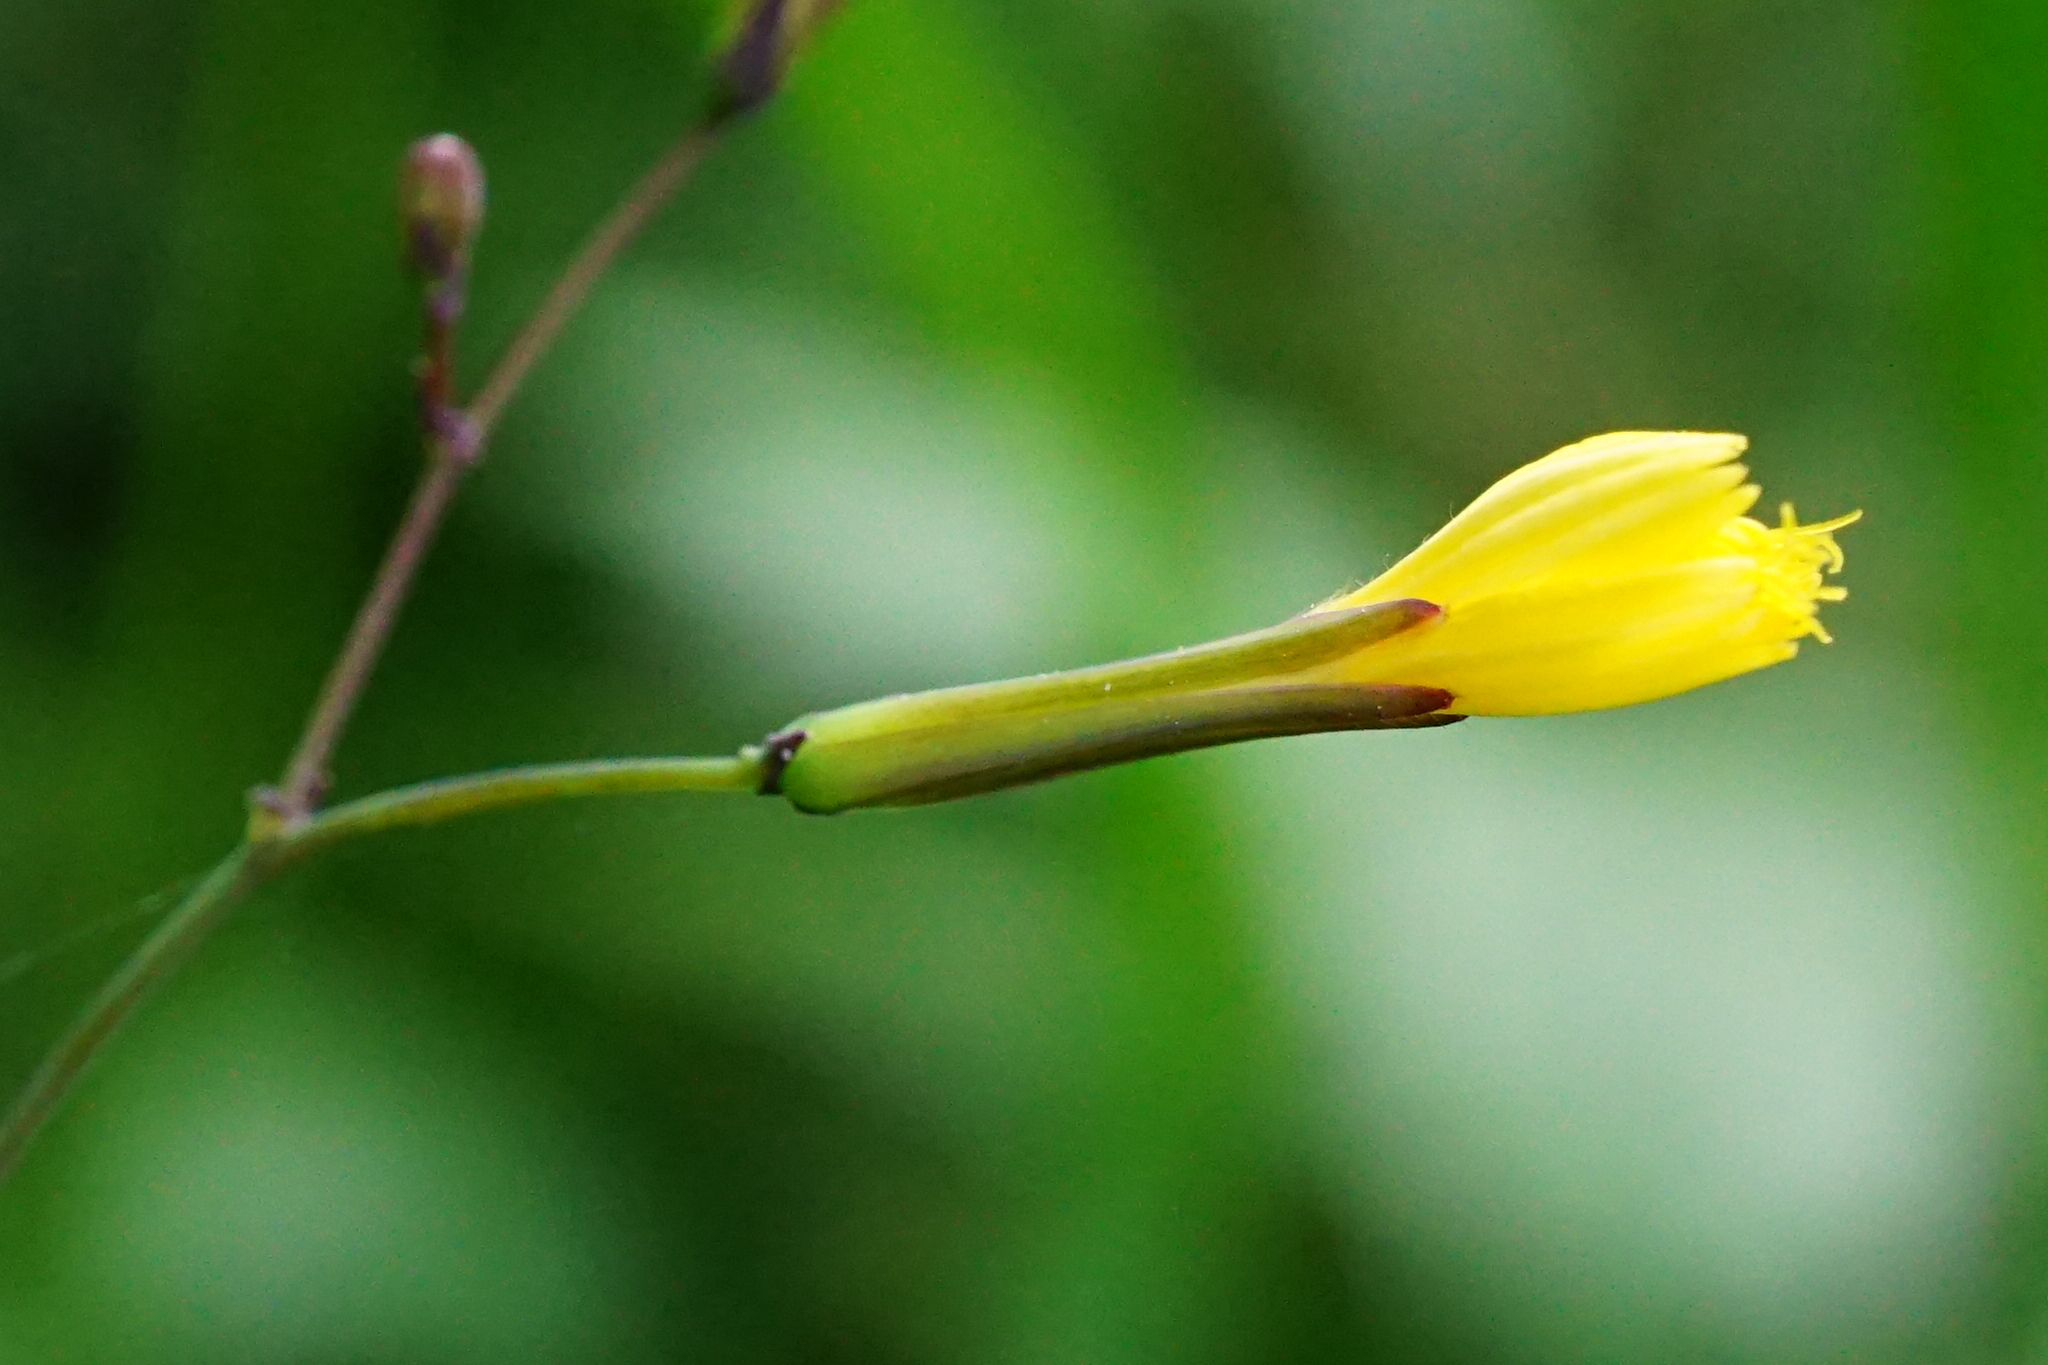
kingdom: Plantae
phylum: Tracheophyta
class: Magnoliopsida
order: Asterales
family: Asteraceae
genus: Mycelis
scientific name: Mycelis muralis
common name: Wall lettuce
